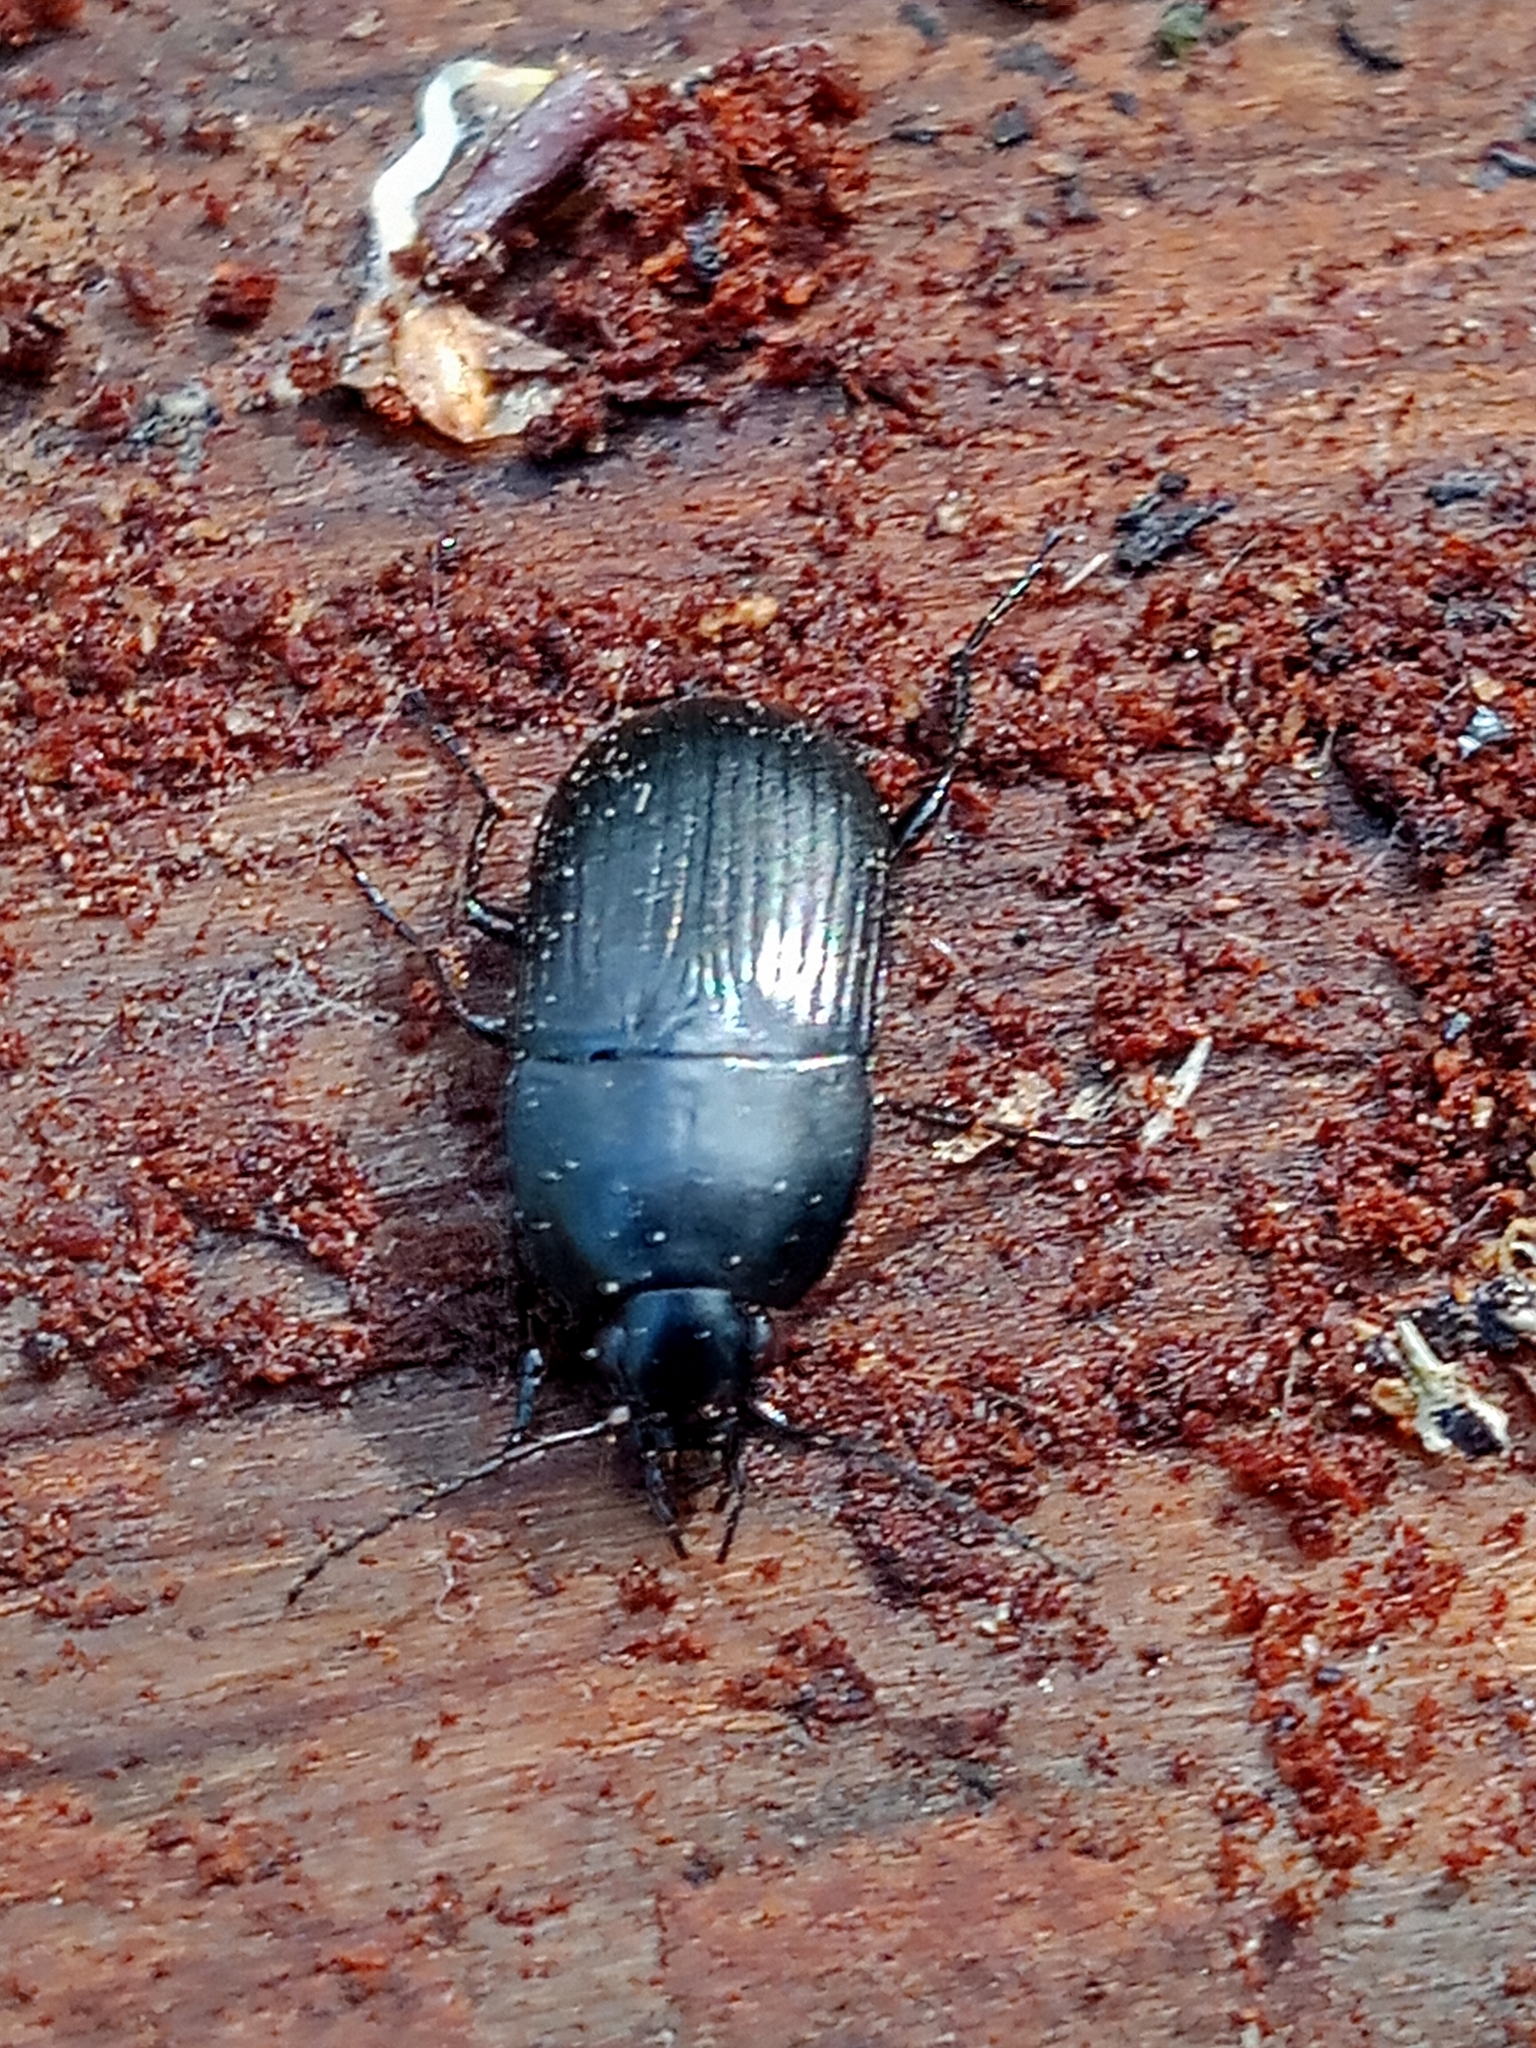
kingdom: Animalia
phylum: Arthropoda
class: Insecta
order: Coleoptera
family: Carabidae
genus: Oodes
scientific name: Oodes helopioides
